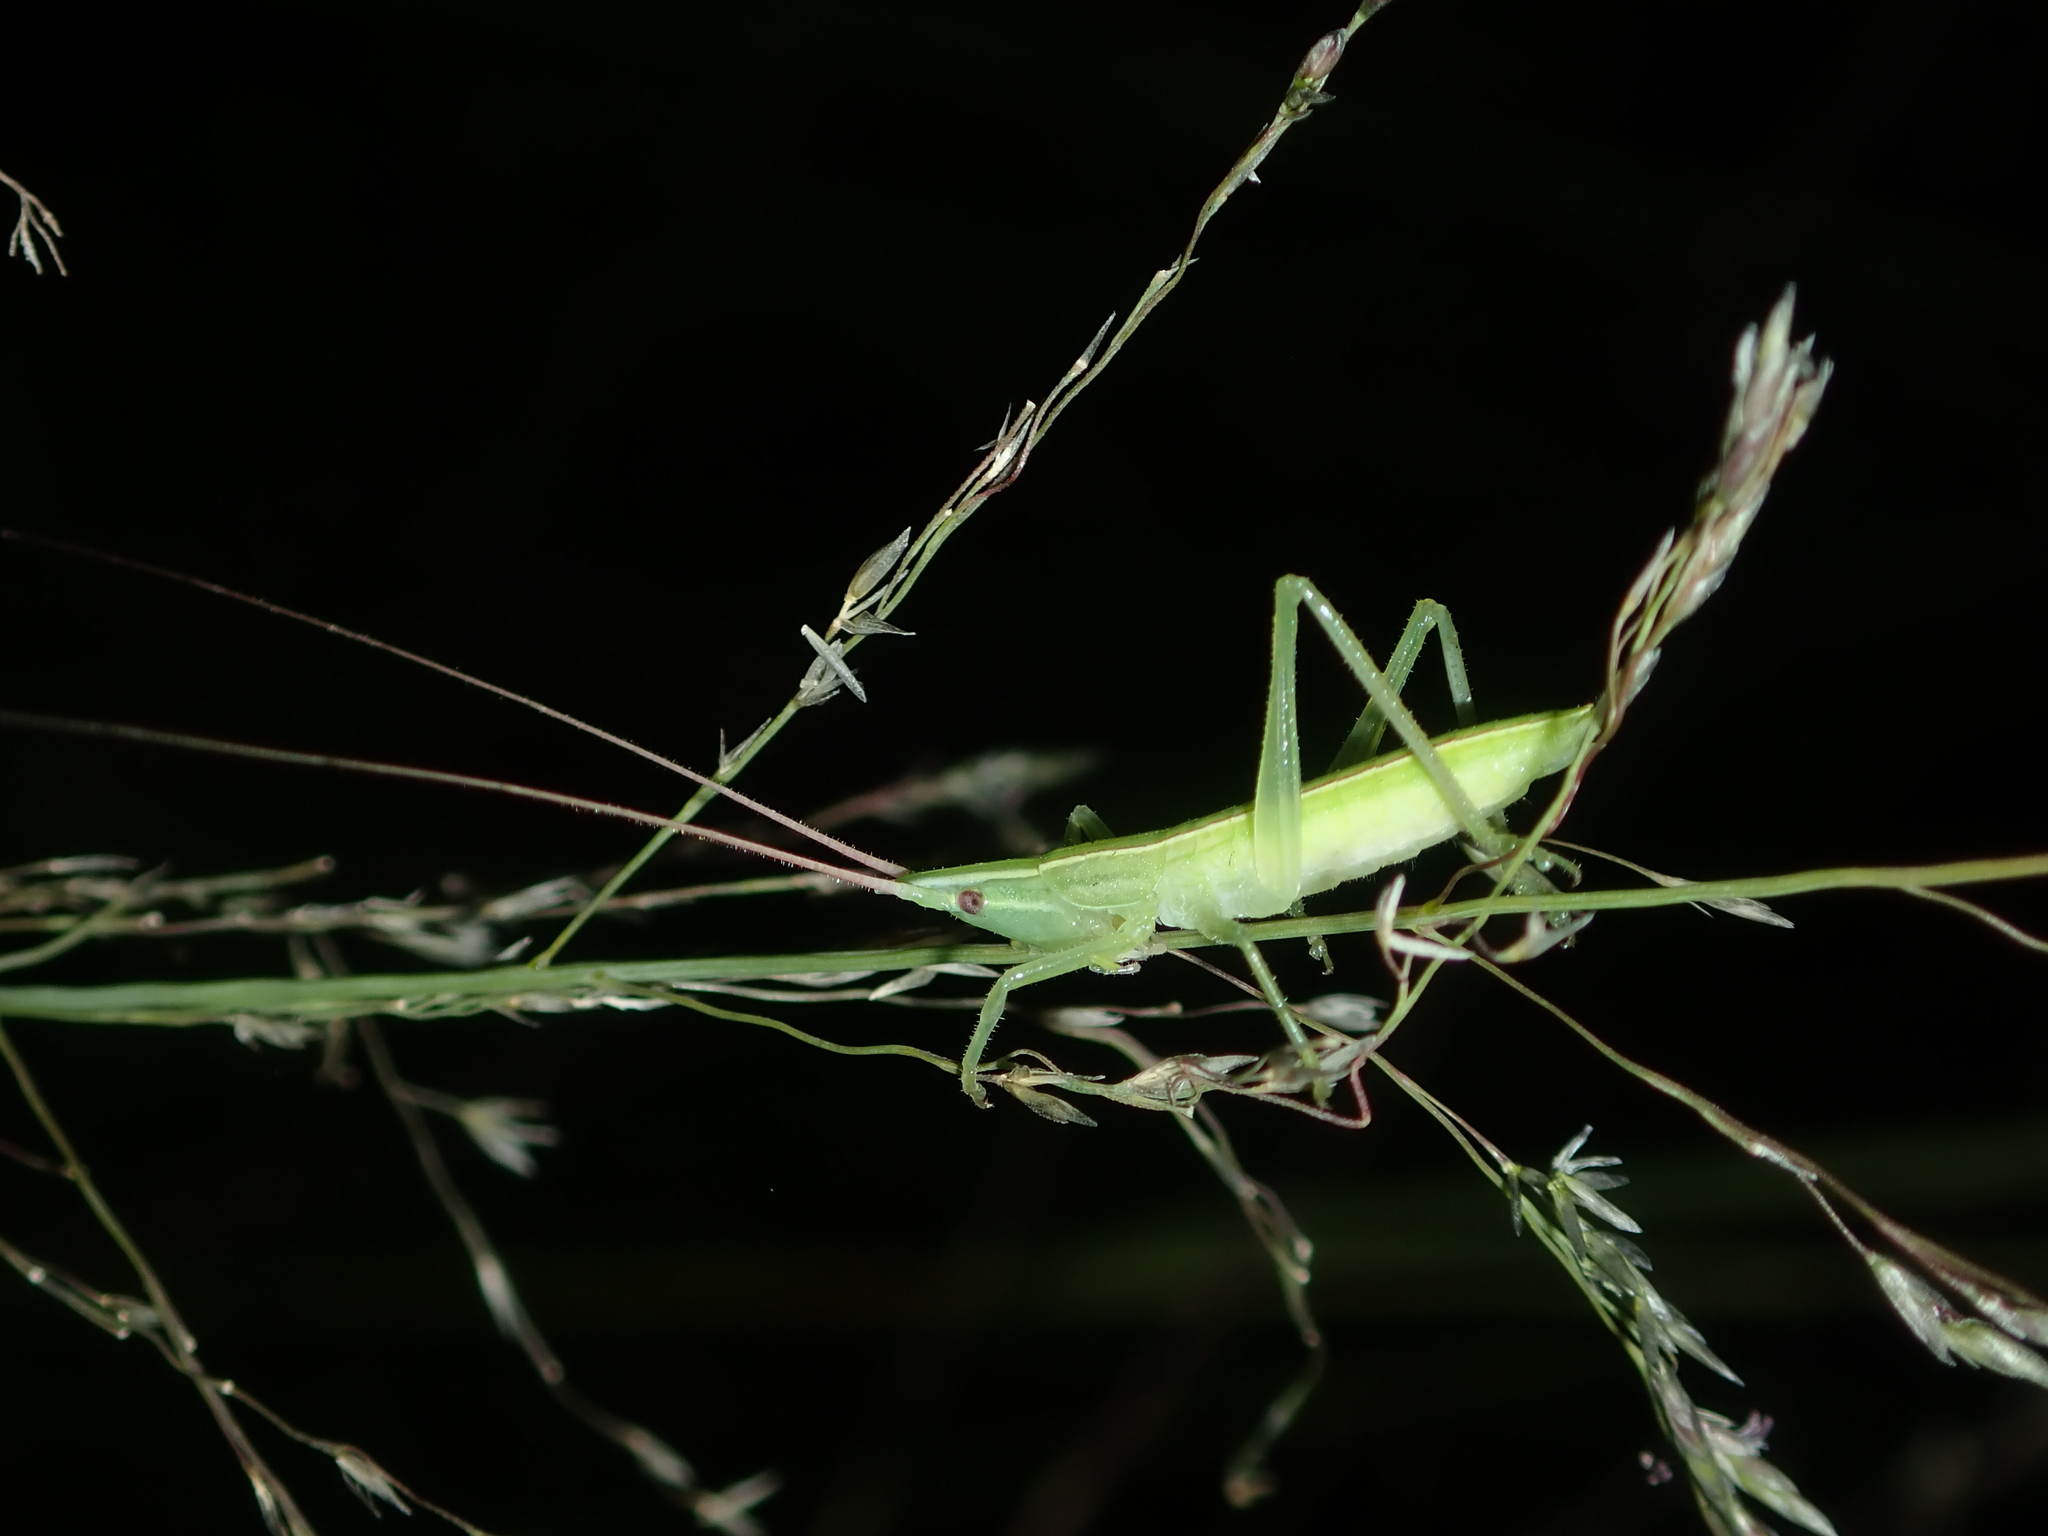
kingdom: Animalia
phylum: Arthropoda
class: Insecta
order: Orthoptera
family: Tettigoniidae
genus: Pseudorhynchus
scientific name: Pseudorhynchus lessonii
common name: Lesson's mimicking snout nose
